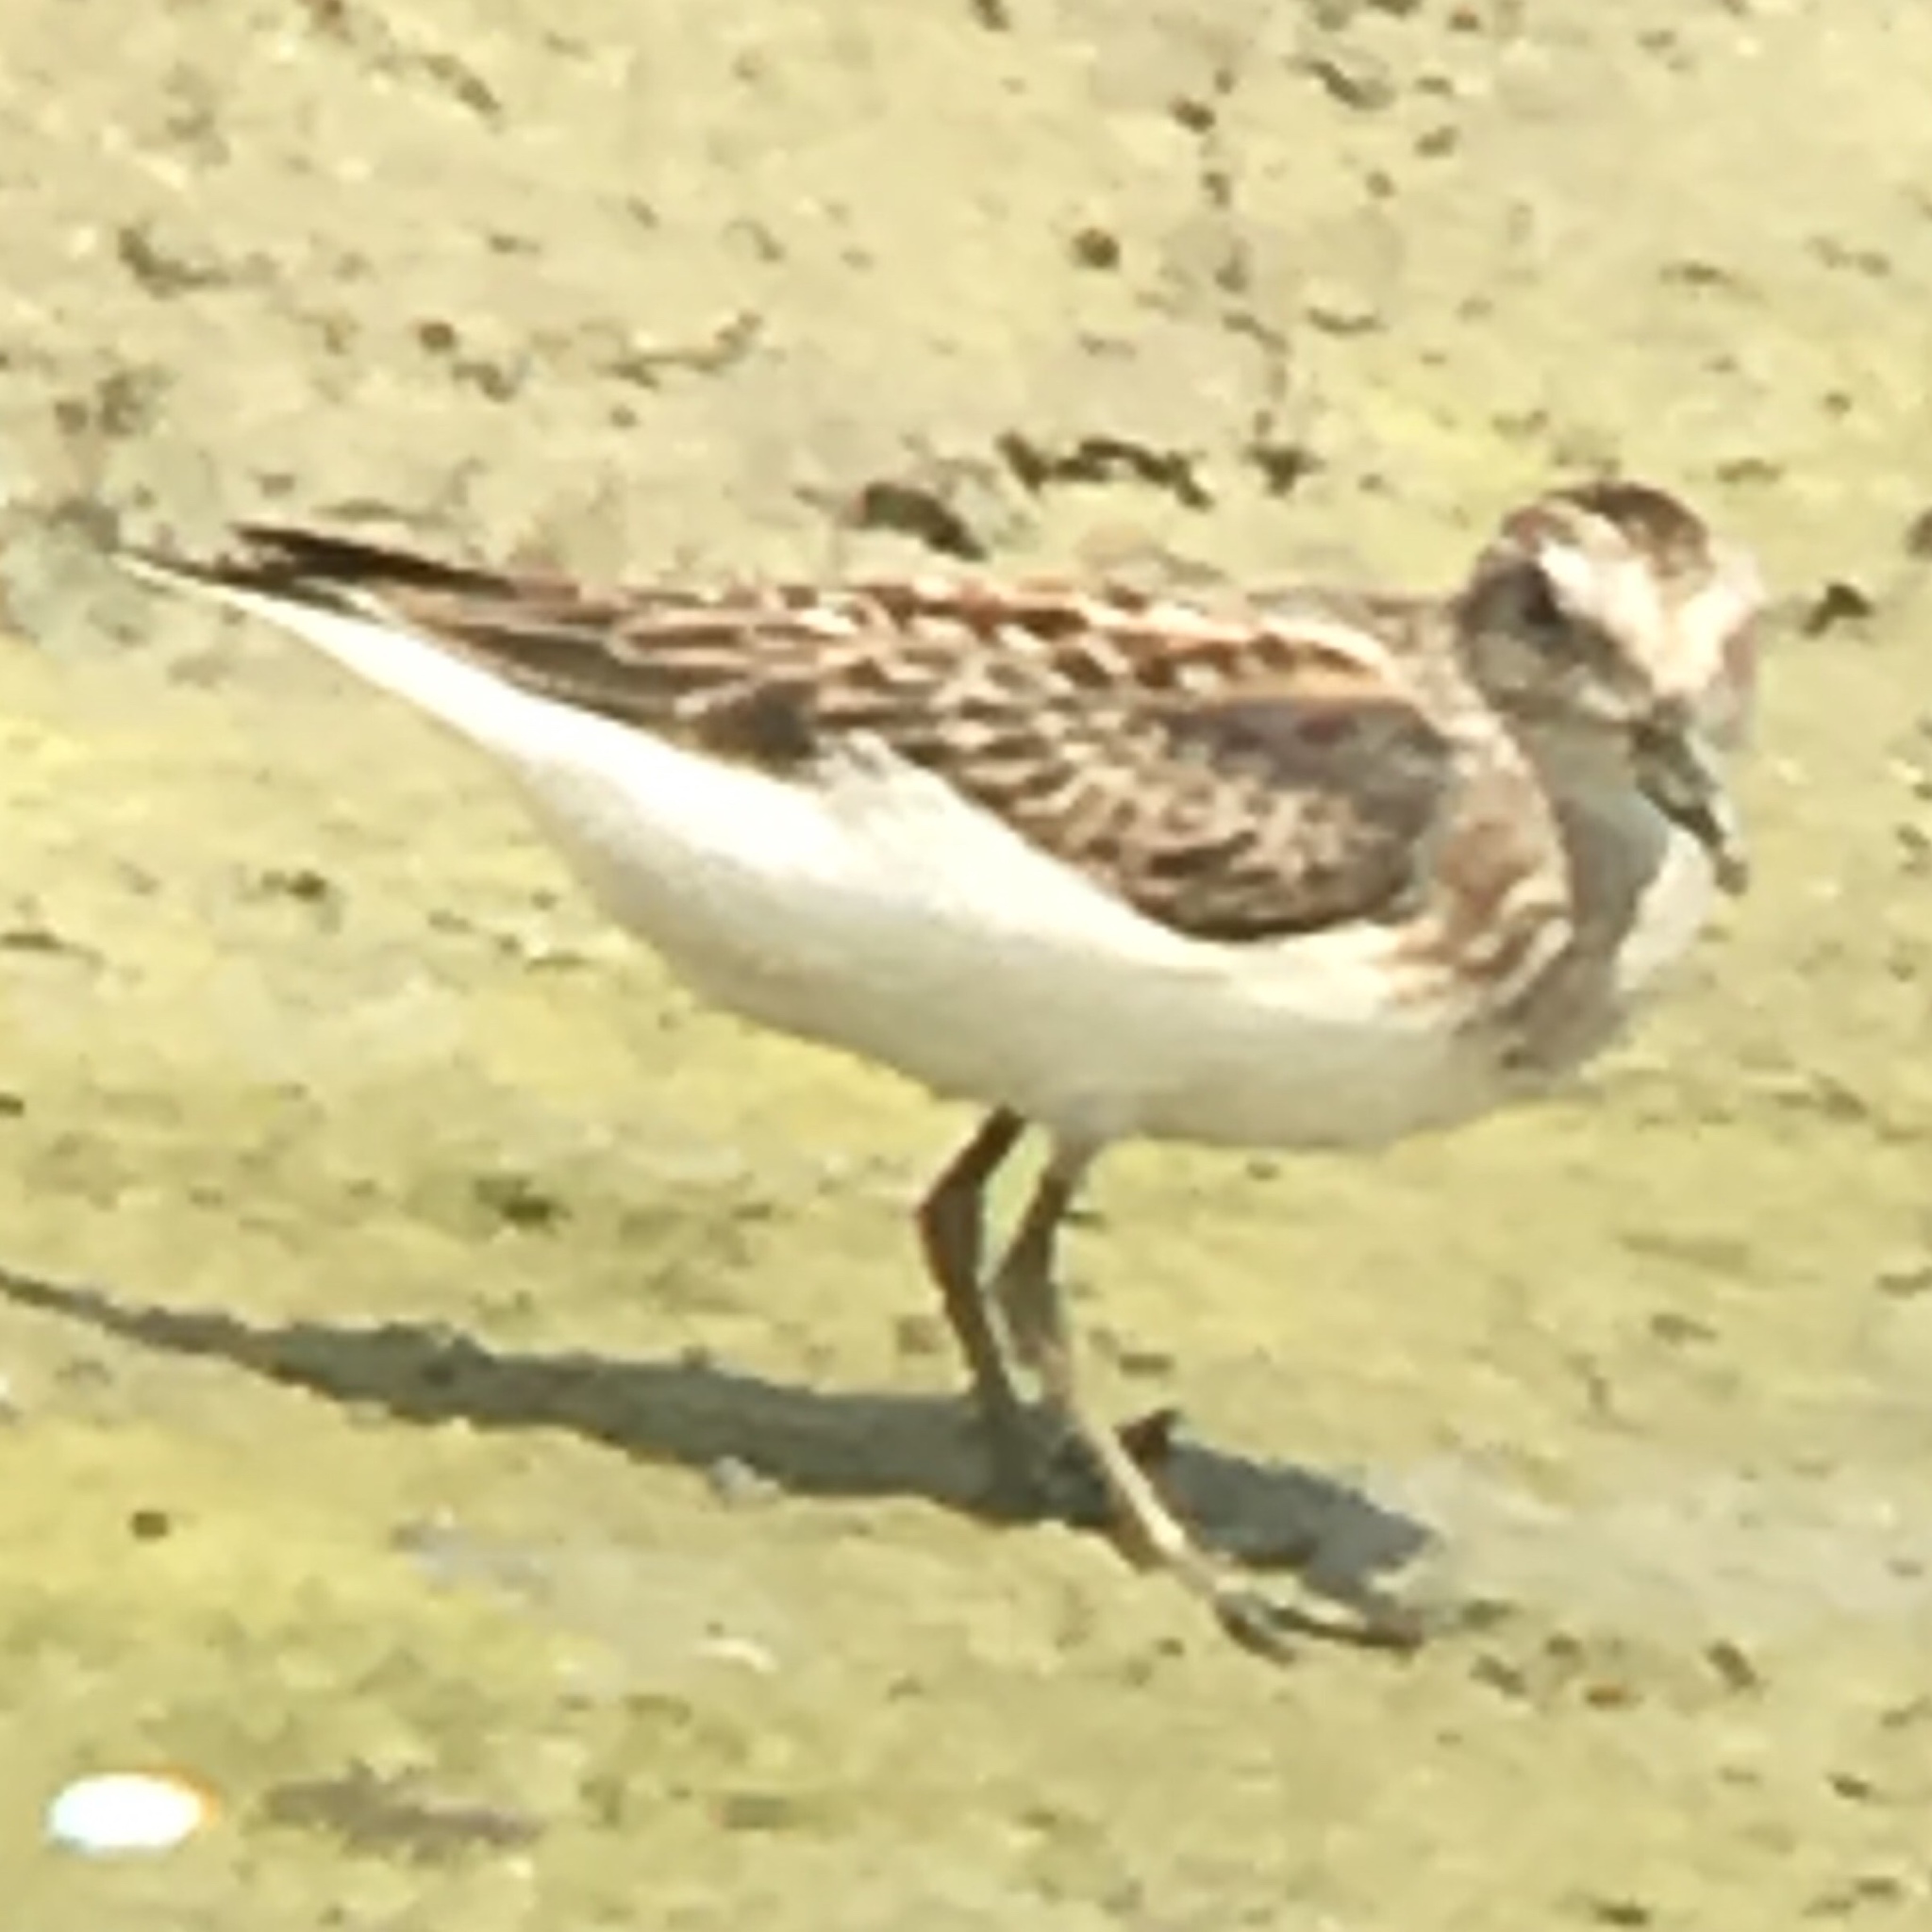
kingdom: Animalia
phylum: Chordata
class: Aves
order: Charadriiformes
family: Scolopacidae
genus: Calidris
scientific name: Calidris minutilla
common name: Least sandpiper
